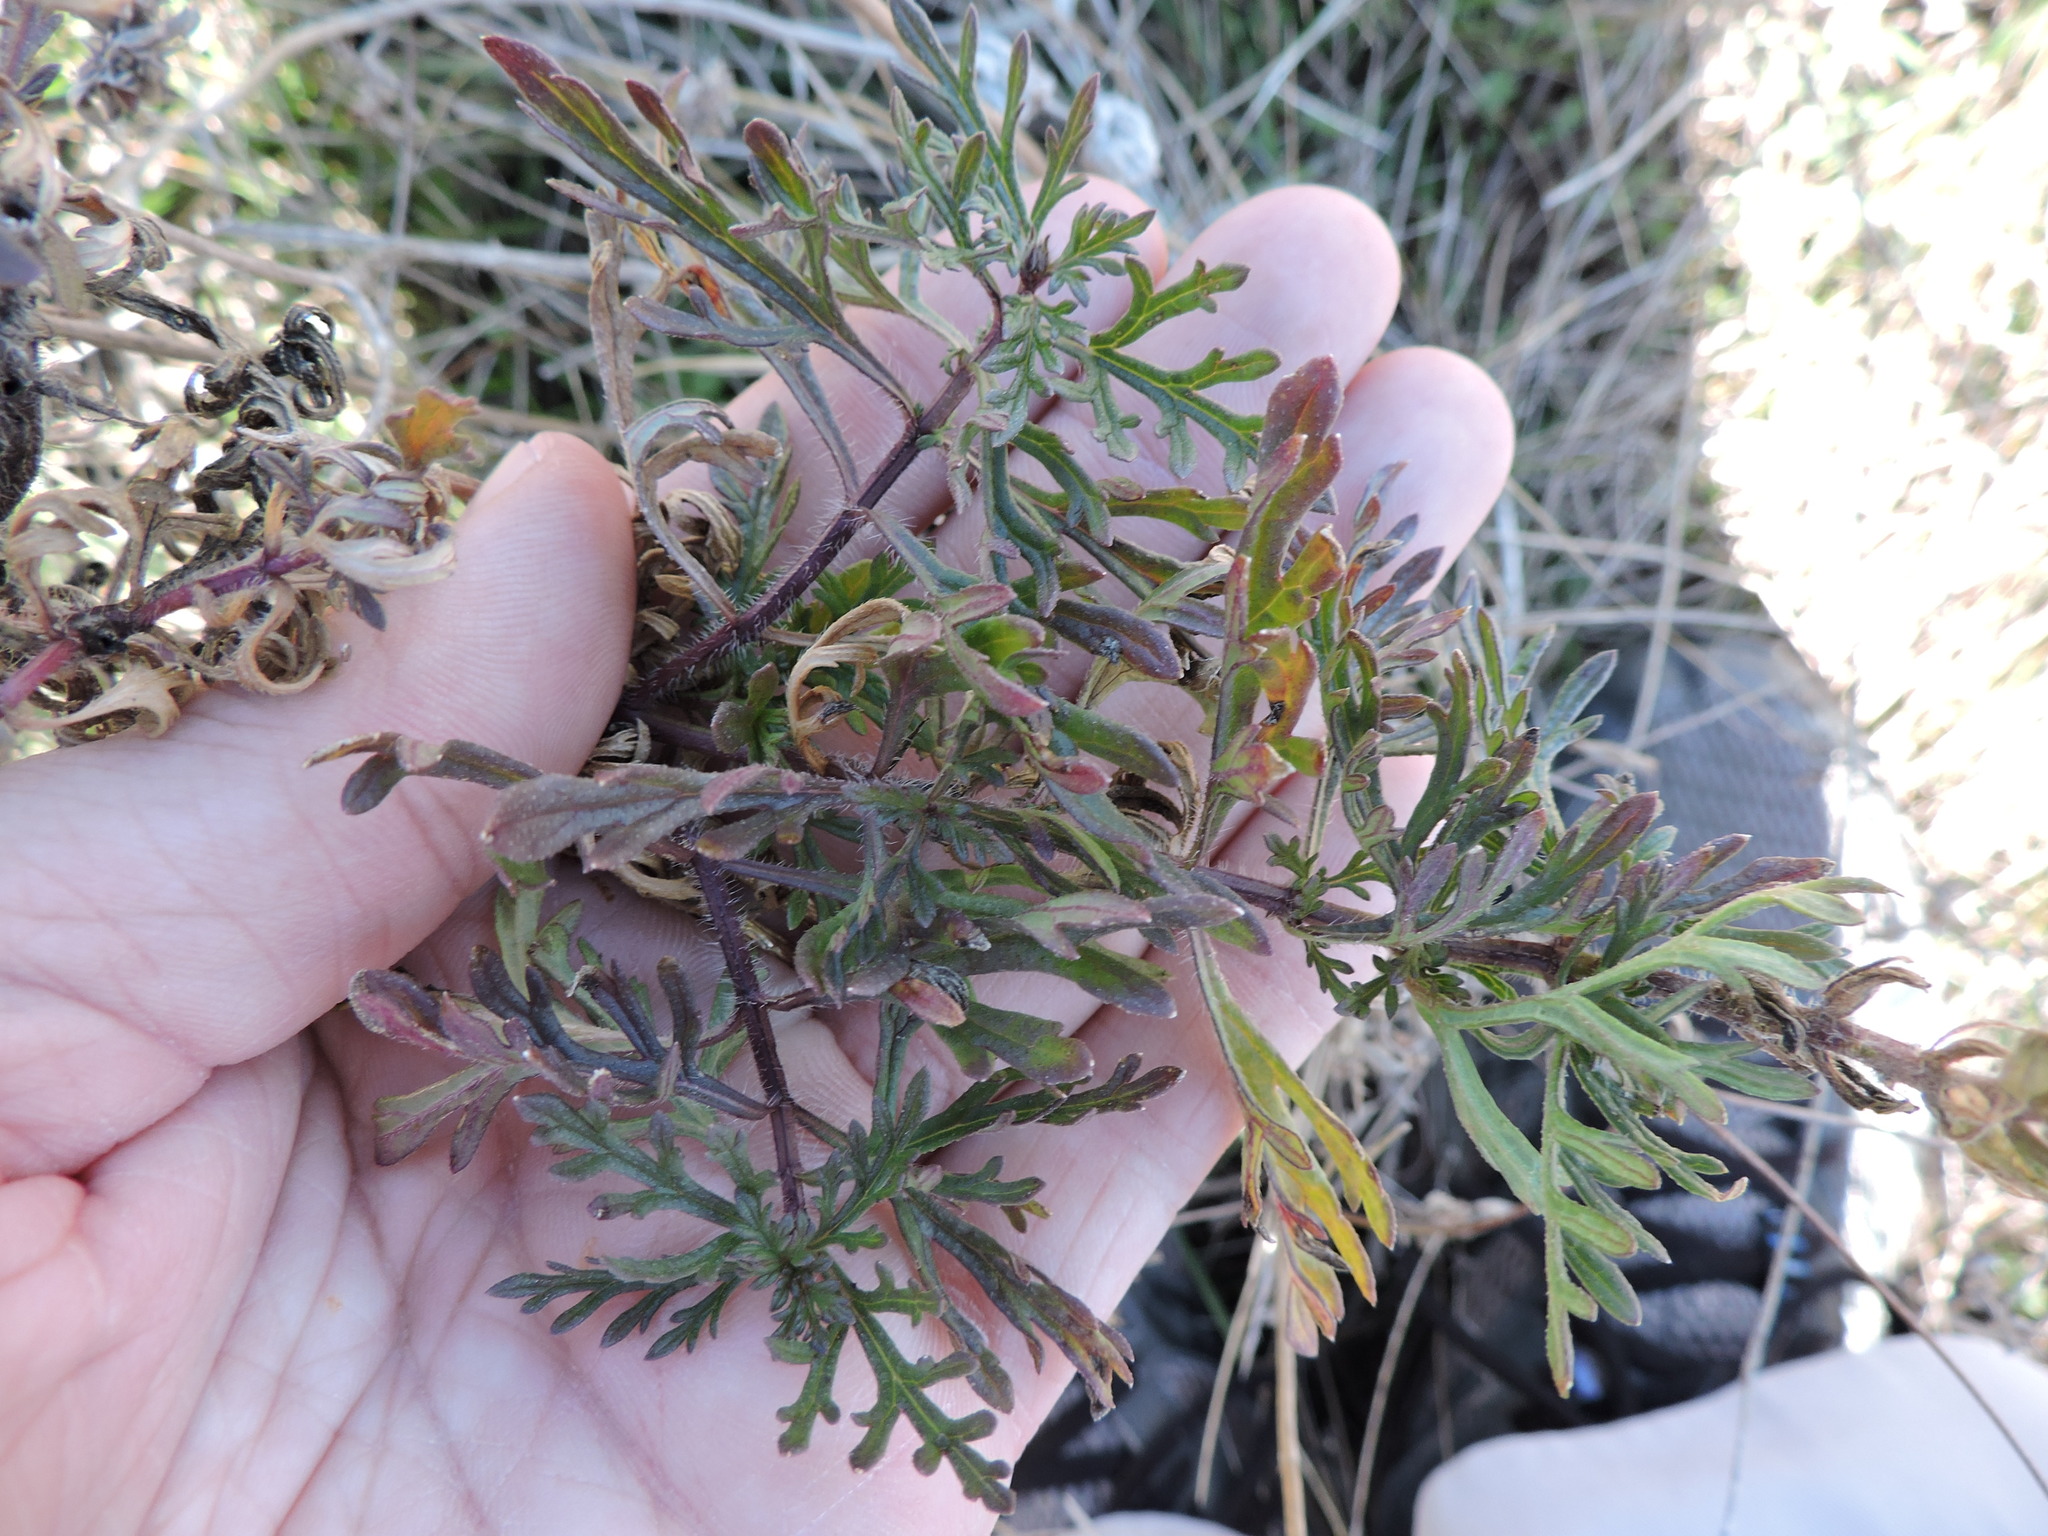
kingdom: Plantae
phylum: Tracheophyta
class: Magnoliopsida
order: Lamiales
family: Verbenaceae
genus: Verbena
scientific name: Verbena bipinnatifida
